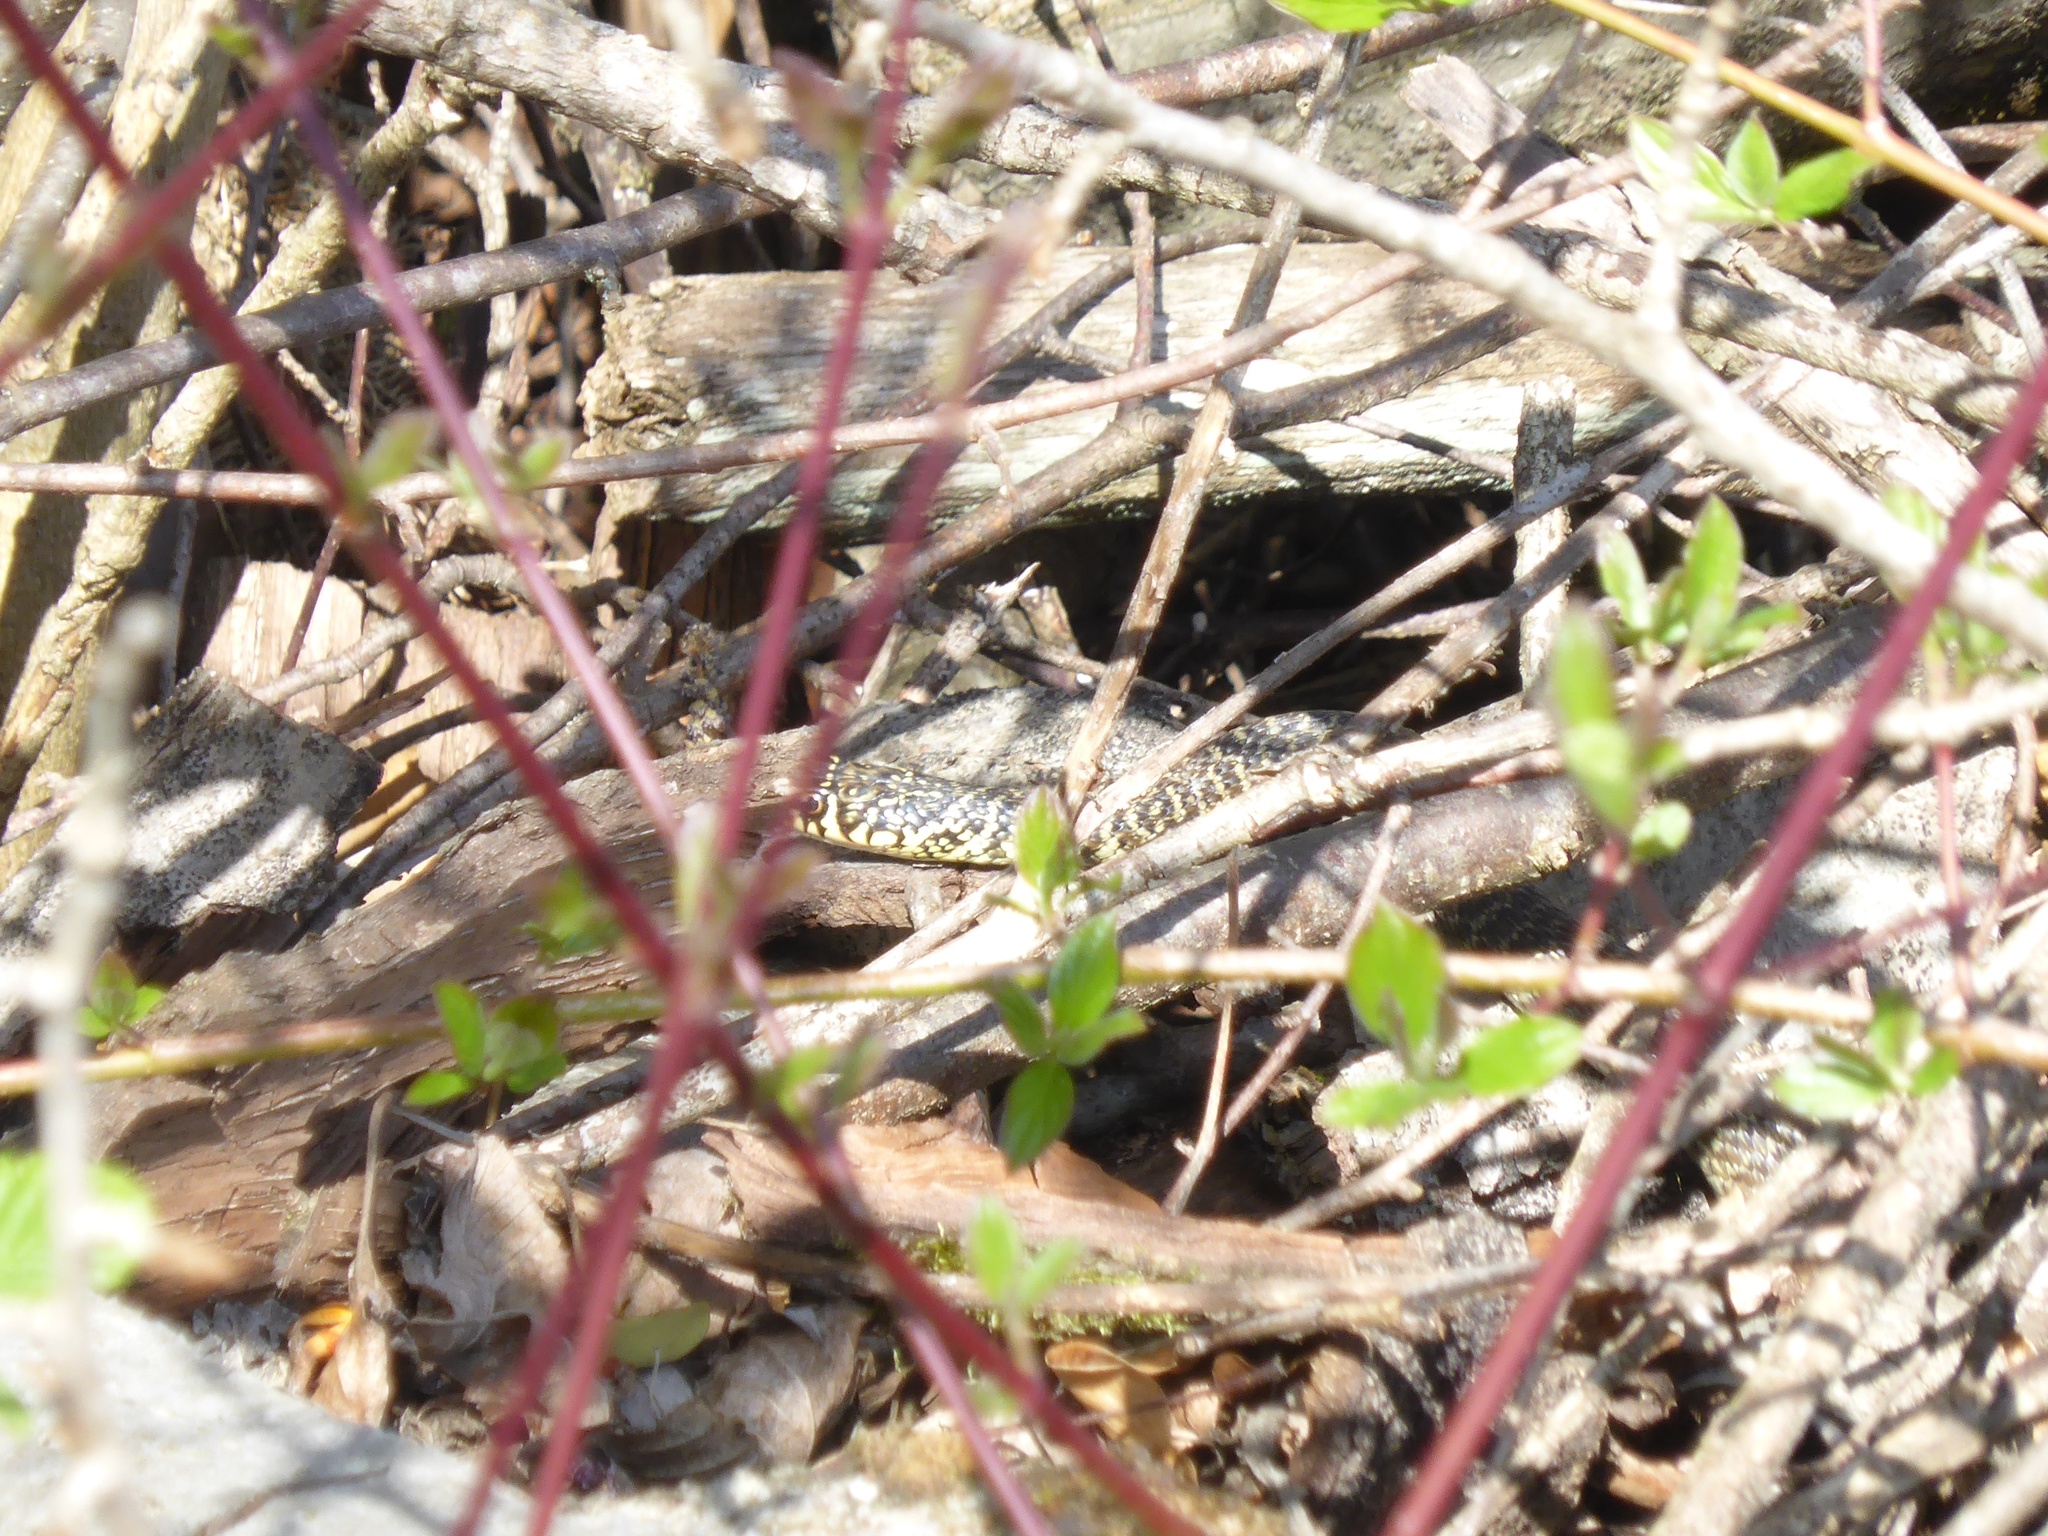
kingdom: Animalia
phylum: Chordata
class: Squamata
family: Colubridae
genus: Hierophis
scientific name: Hierophis viridiflavus
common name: Green whip snake
